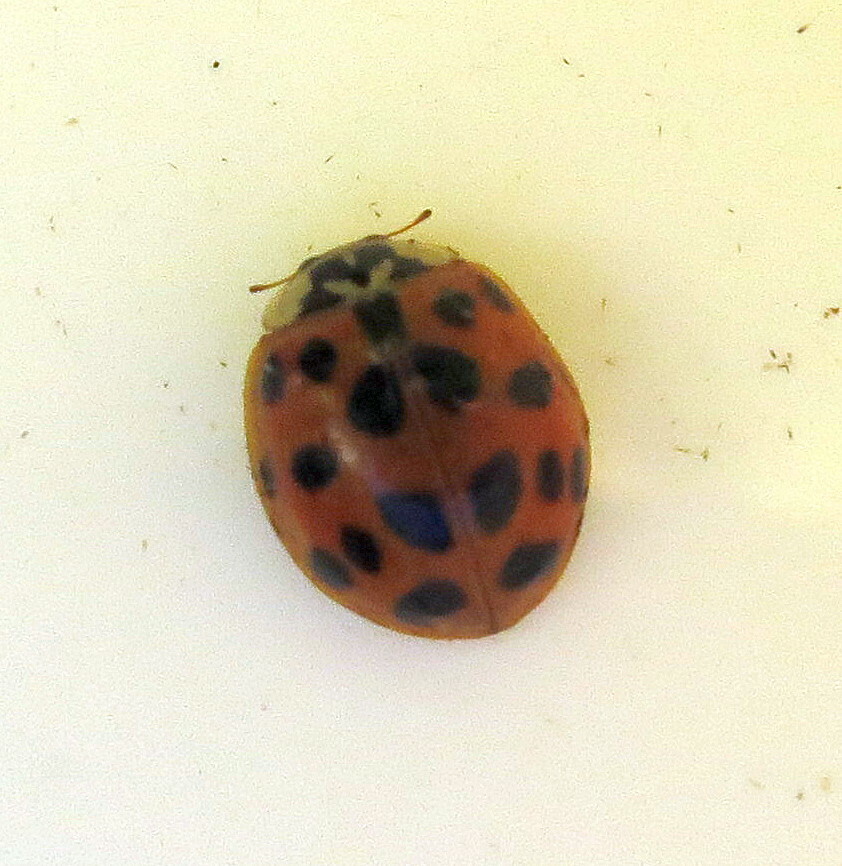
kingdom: Animalia
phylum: Arthropoda
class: Insecta
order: Coleoptera
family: Coccinellidae
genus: Harmonia
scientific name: Harmonia axyridis
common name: Harlequin ladybird
